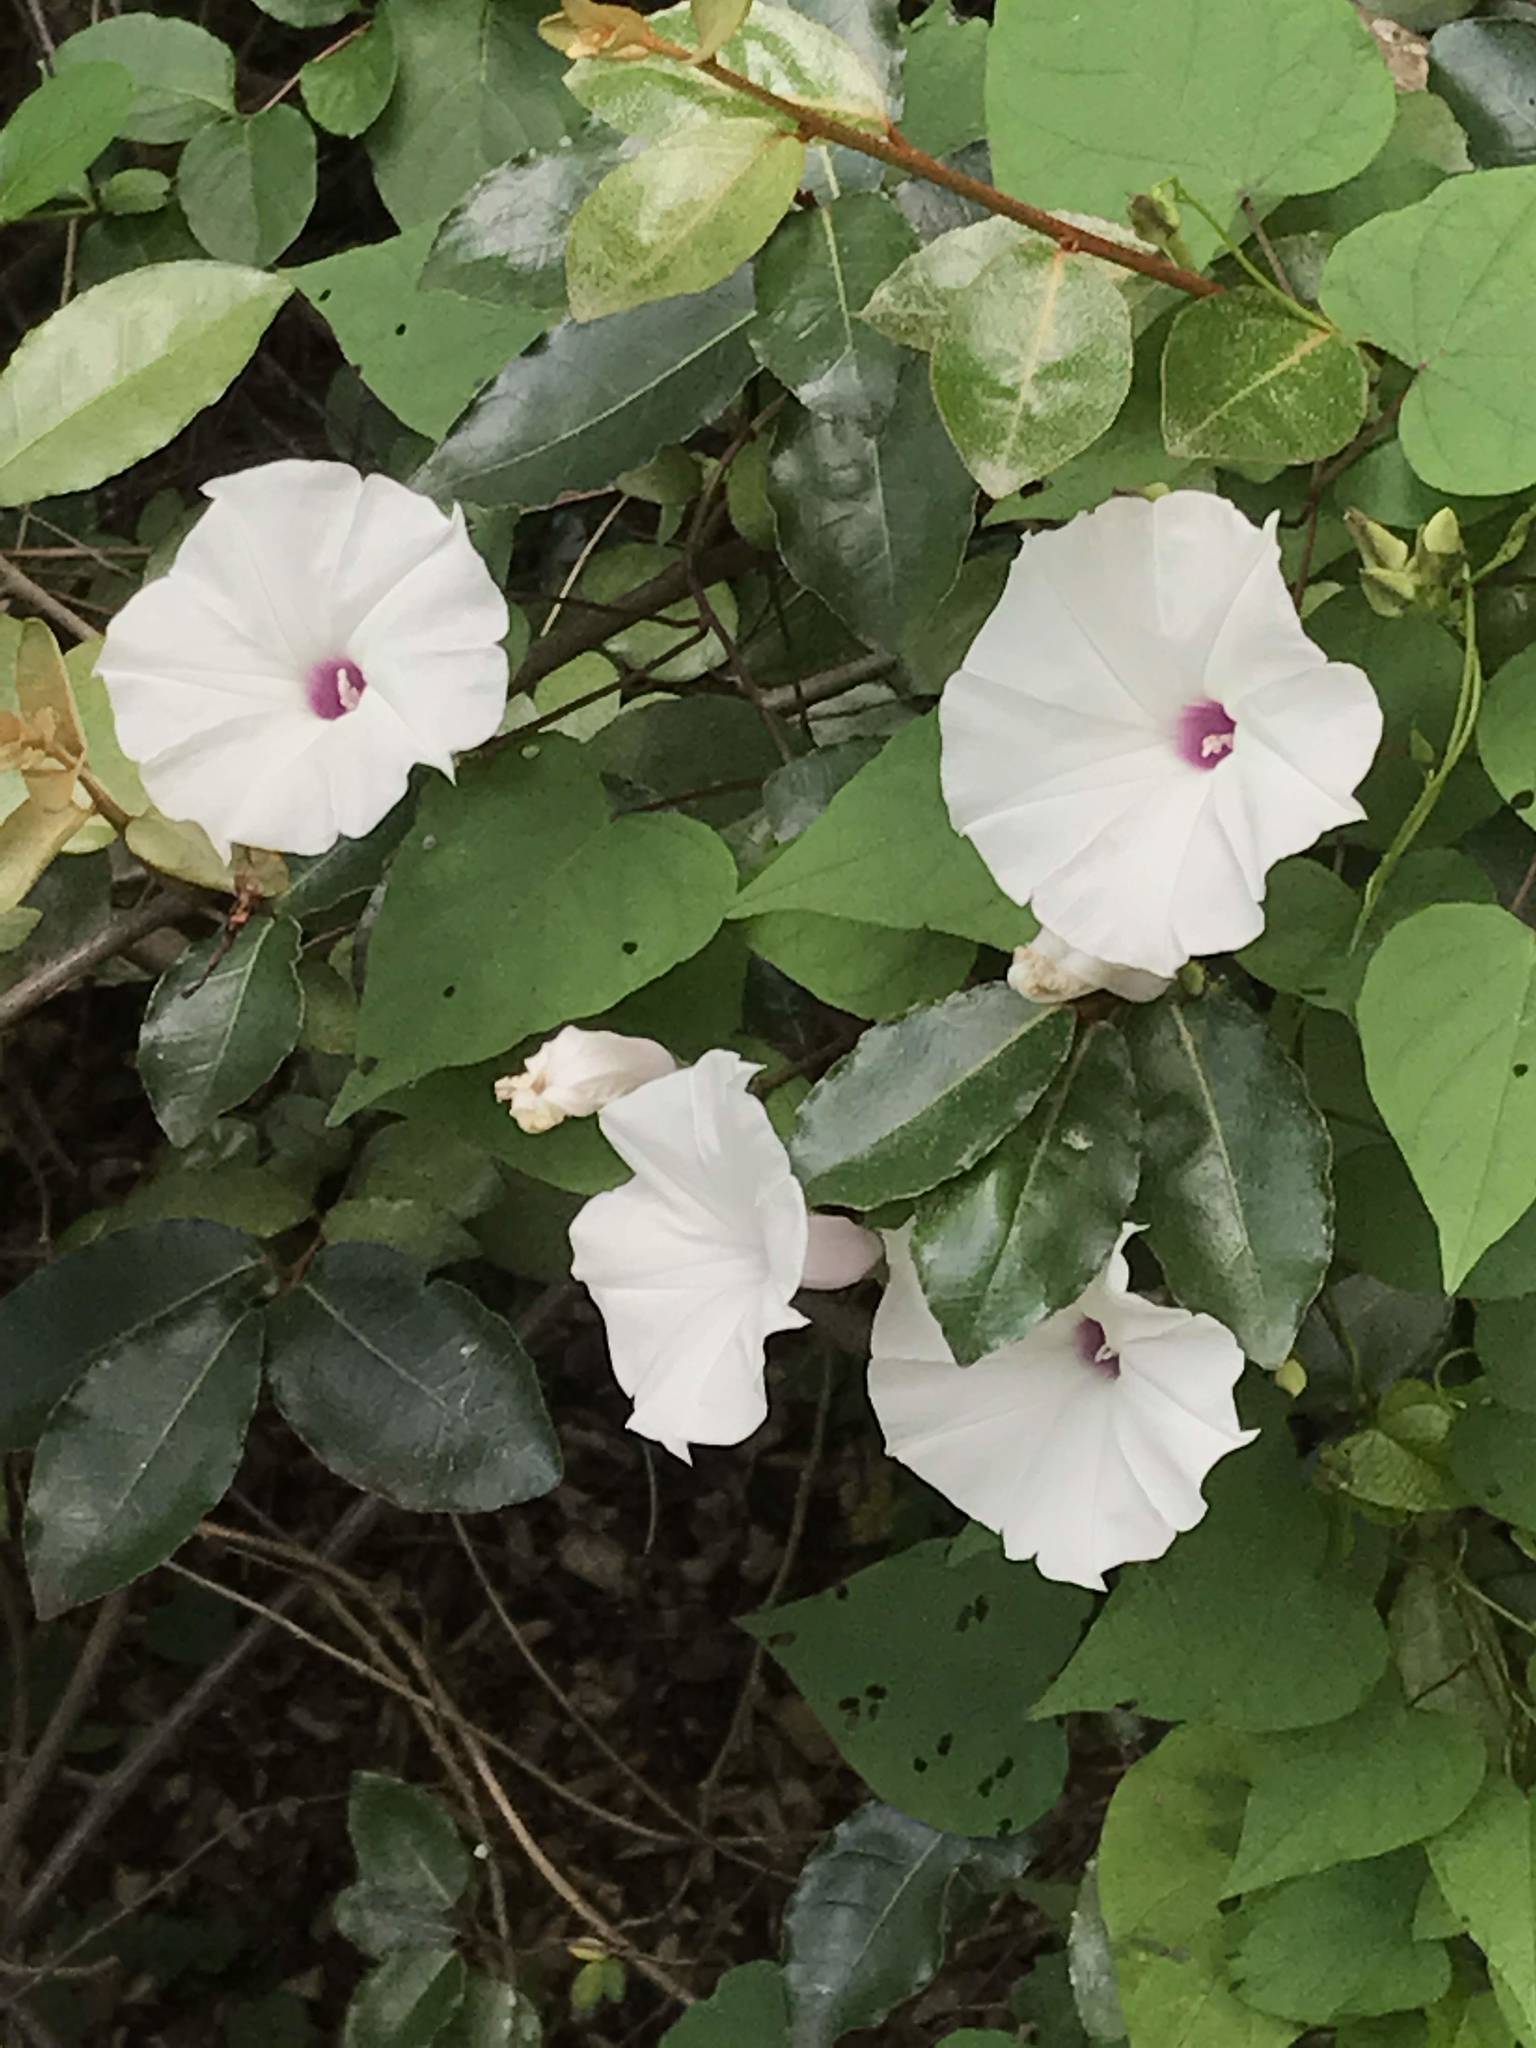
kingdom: Plantae
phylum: Tracheophyta
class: Magnoliopsida
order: Solanales
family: Convolvulaceae
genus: Ipomoea
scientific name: Ipomoea pandurata
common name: Man-of-the-earth
